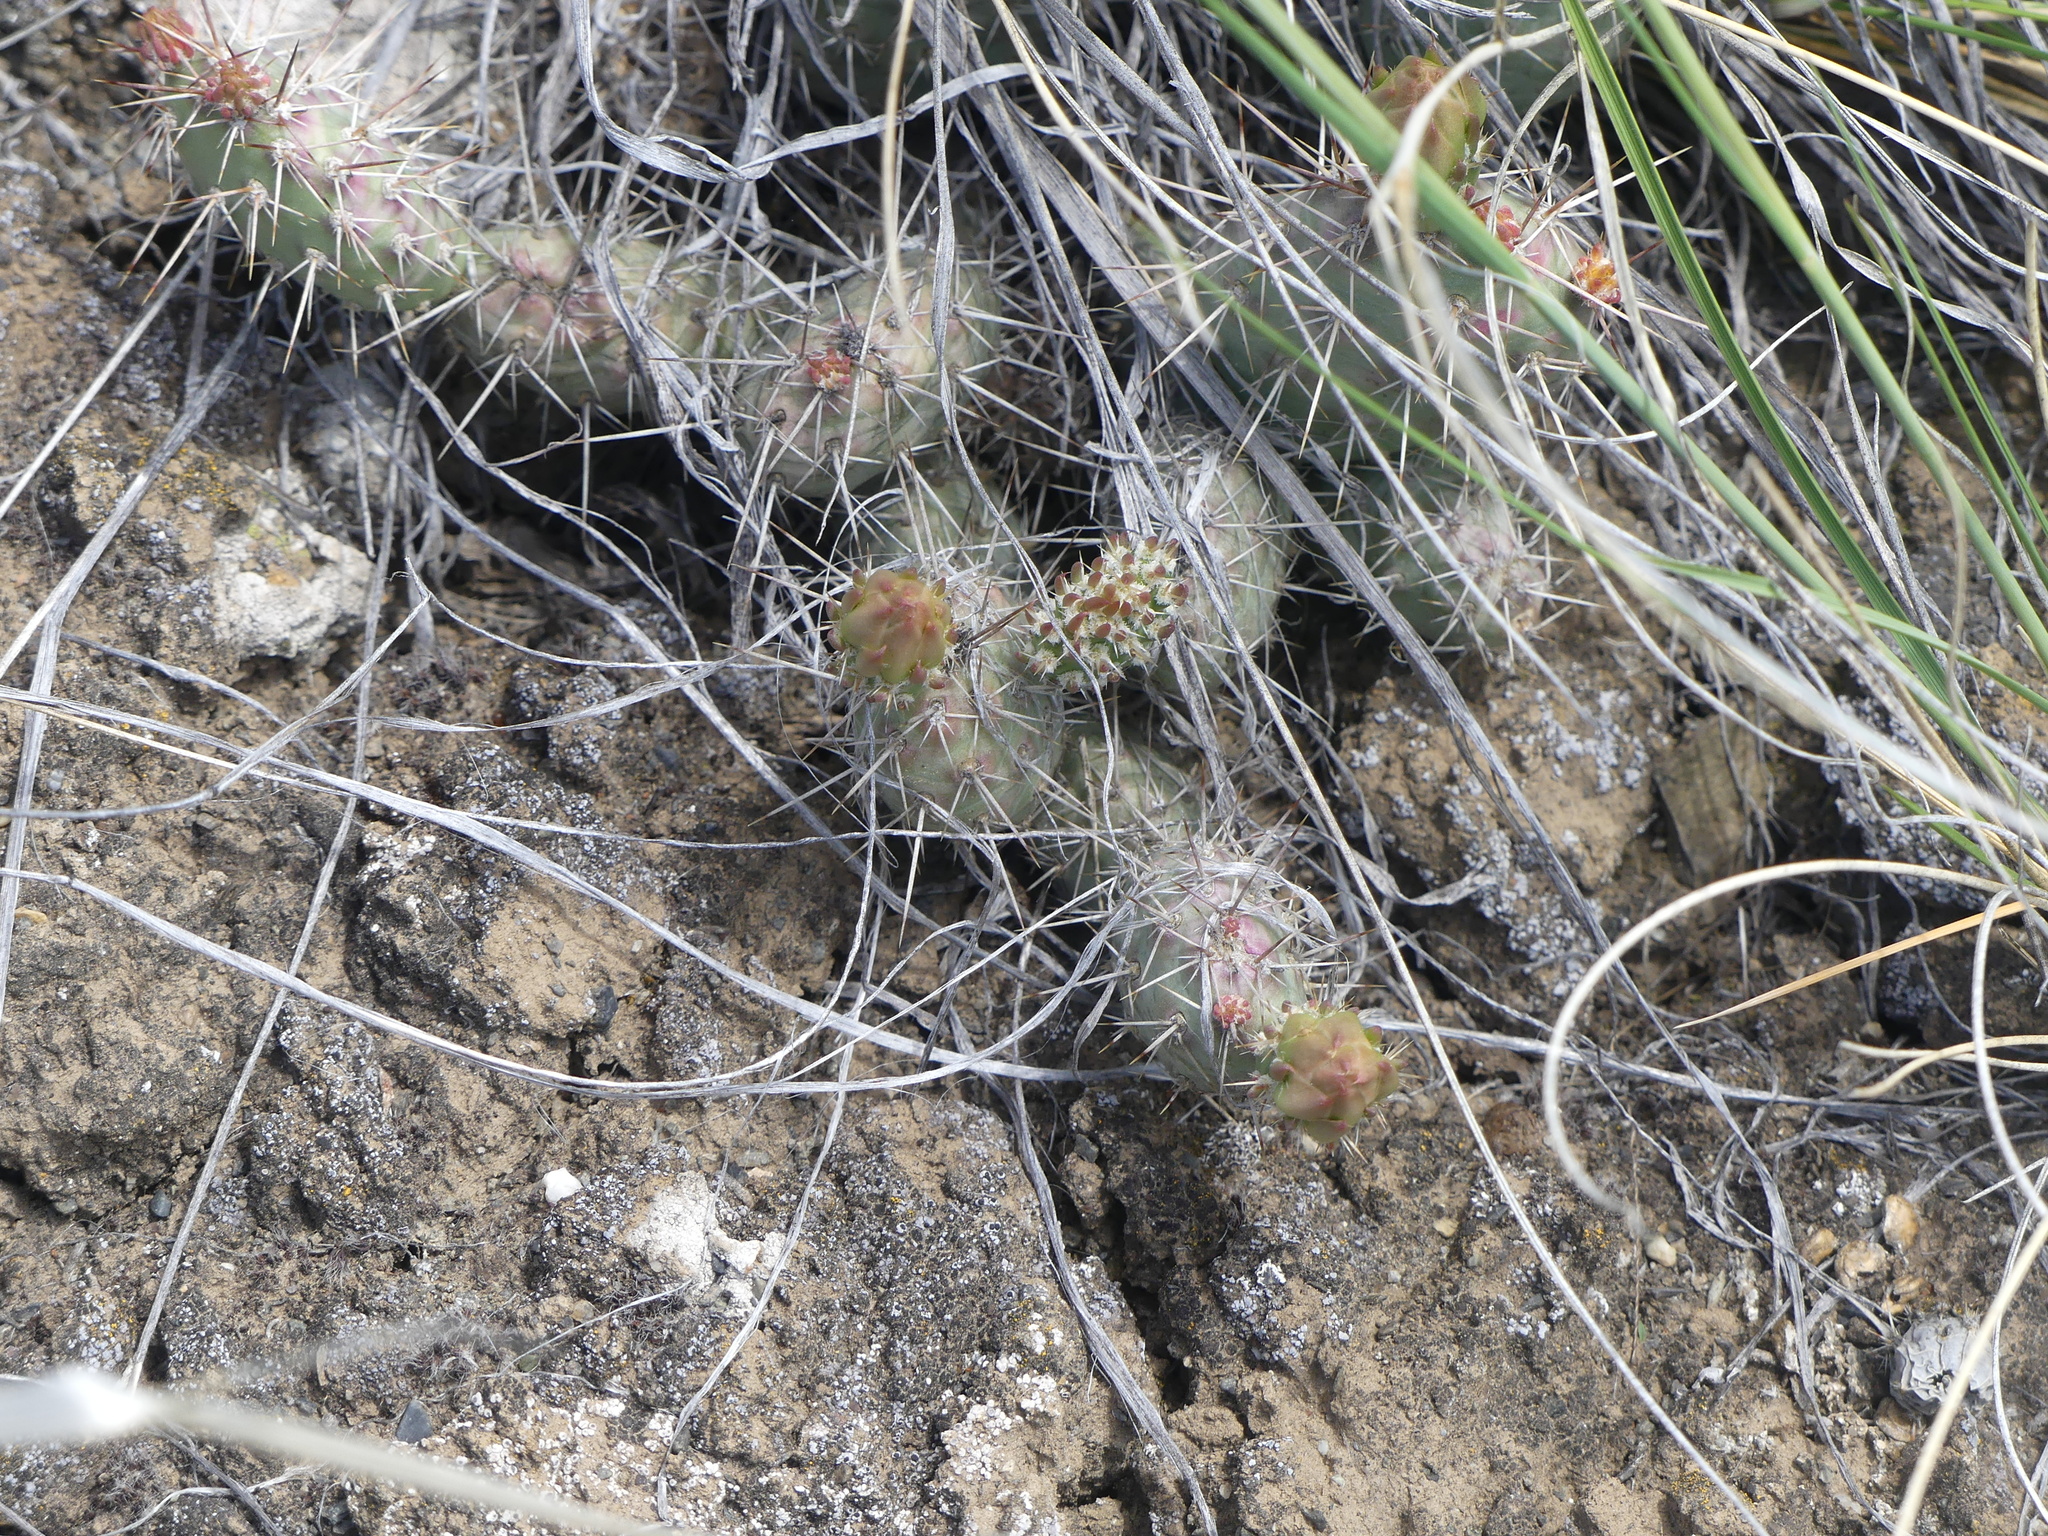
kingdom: Plantae
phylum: Tracheophyta
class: Magnoliopsida
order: Caryophyllales
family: Cactaceae
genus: Opuntia
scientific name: Opuntia fragilis
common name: Brittle cactus
